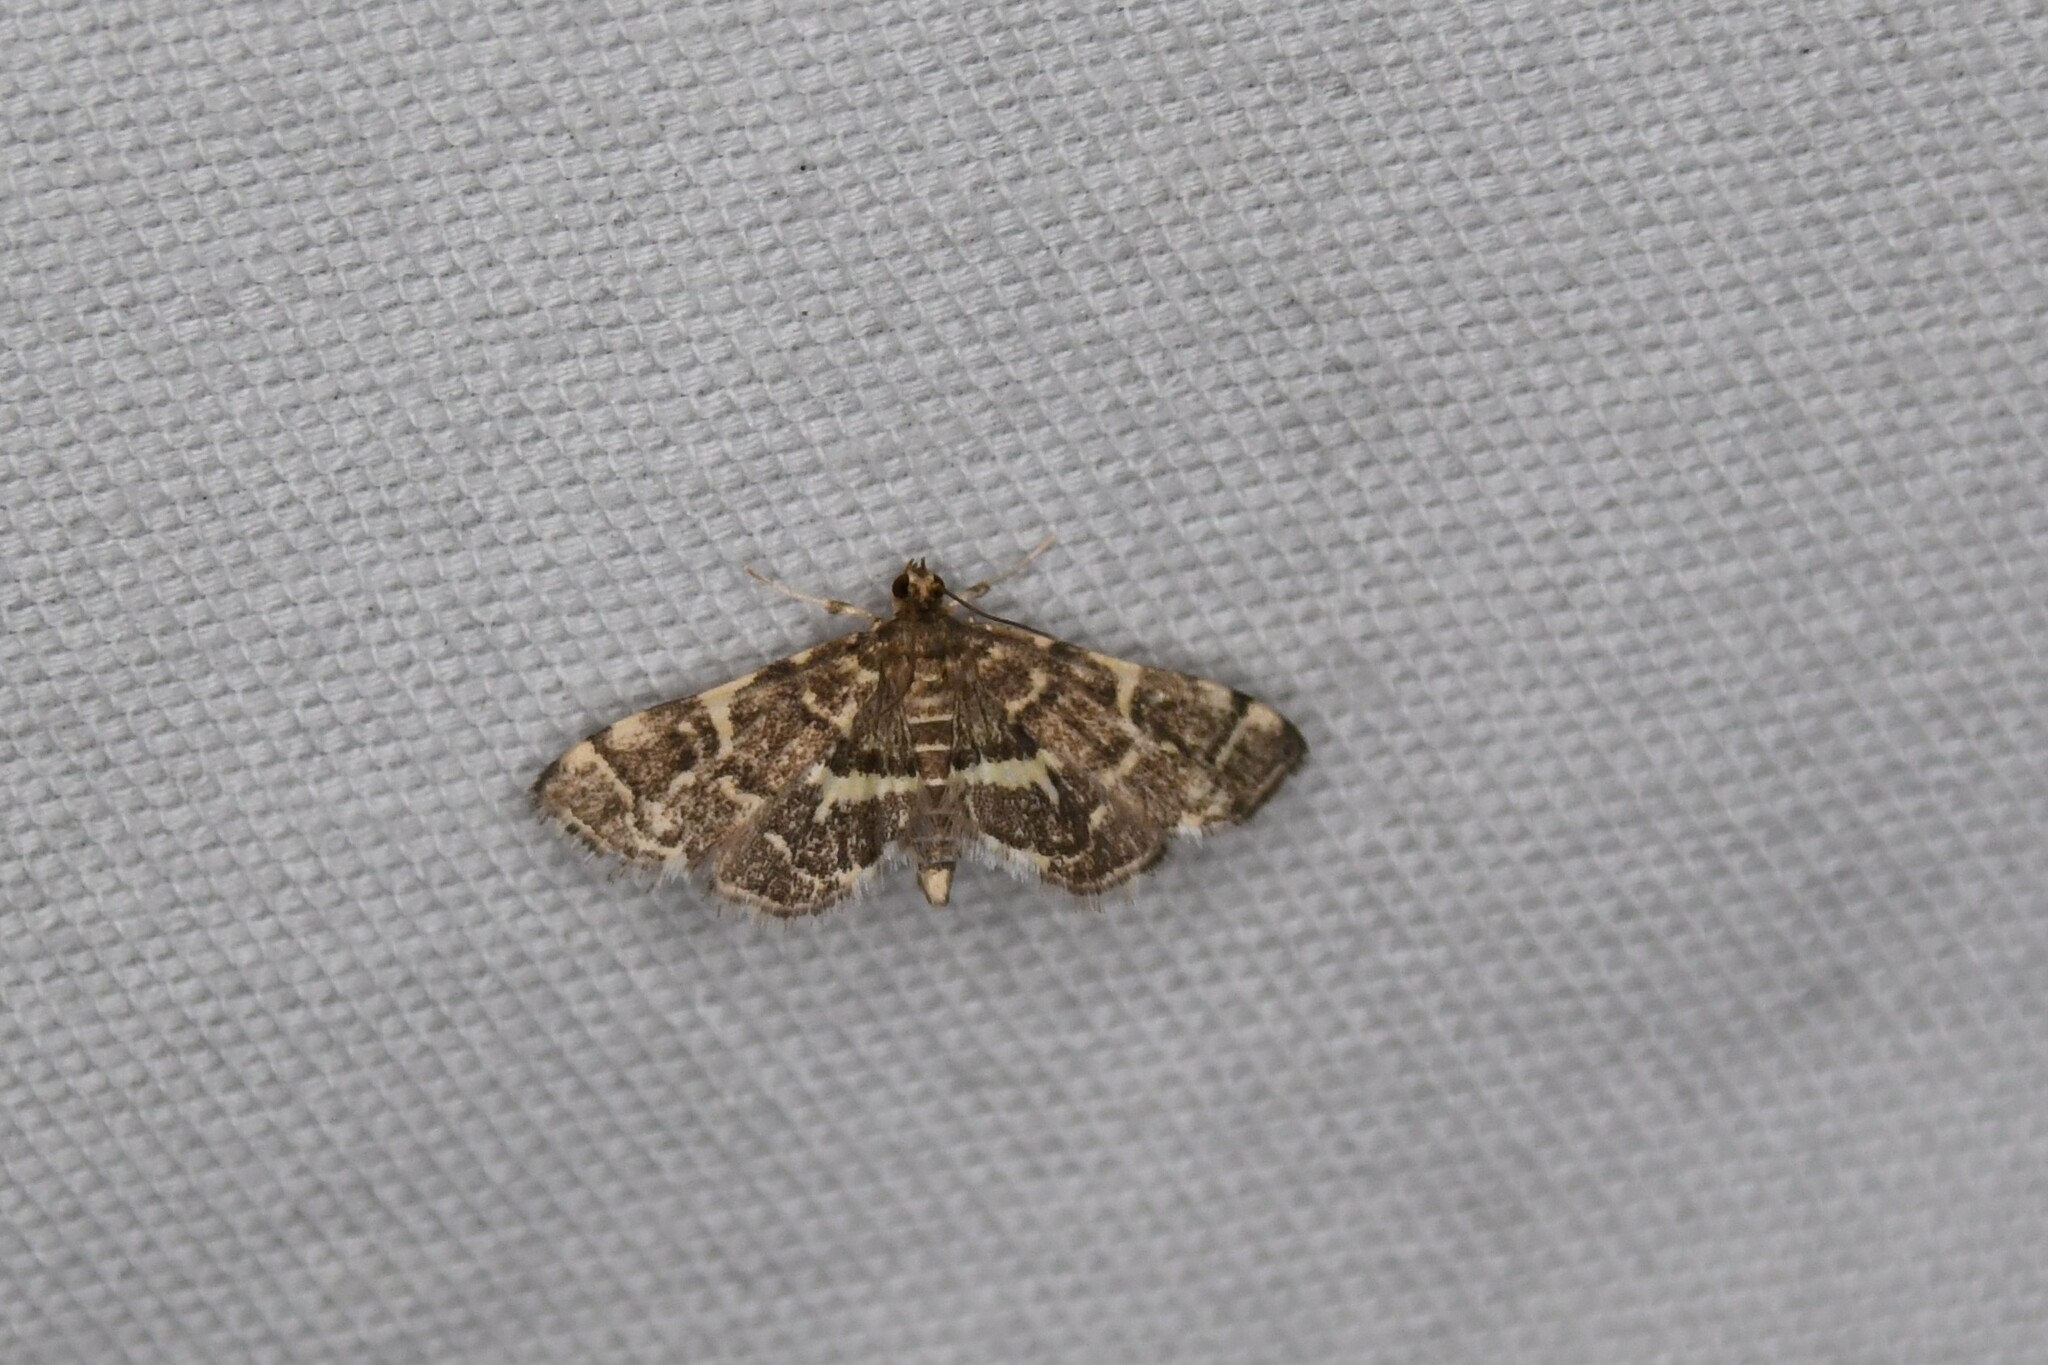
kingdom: Animalia
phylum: Arthropoda
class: Insecta
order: Lepidoptera
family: Crambidae
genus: Anageshna
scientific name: Anageshna primordialis
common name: Yellow-spotted webworm moth
